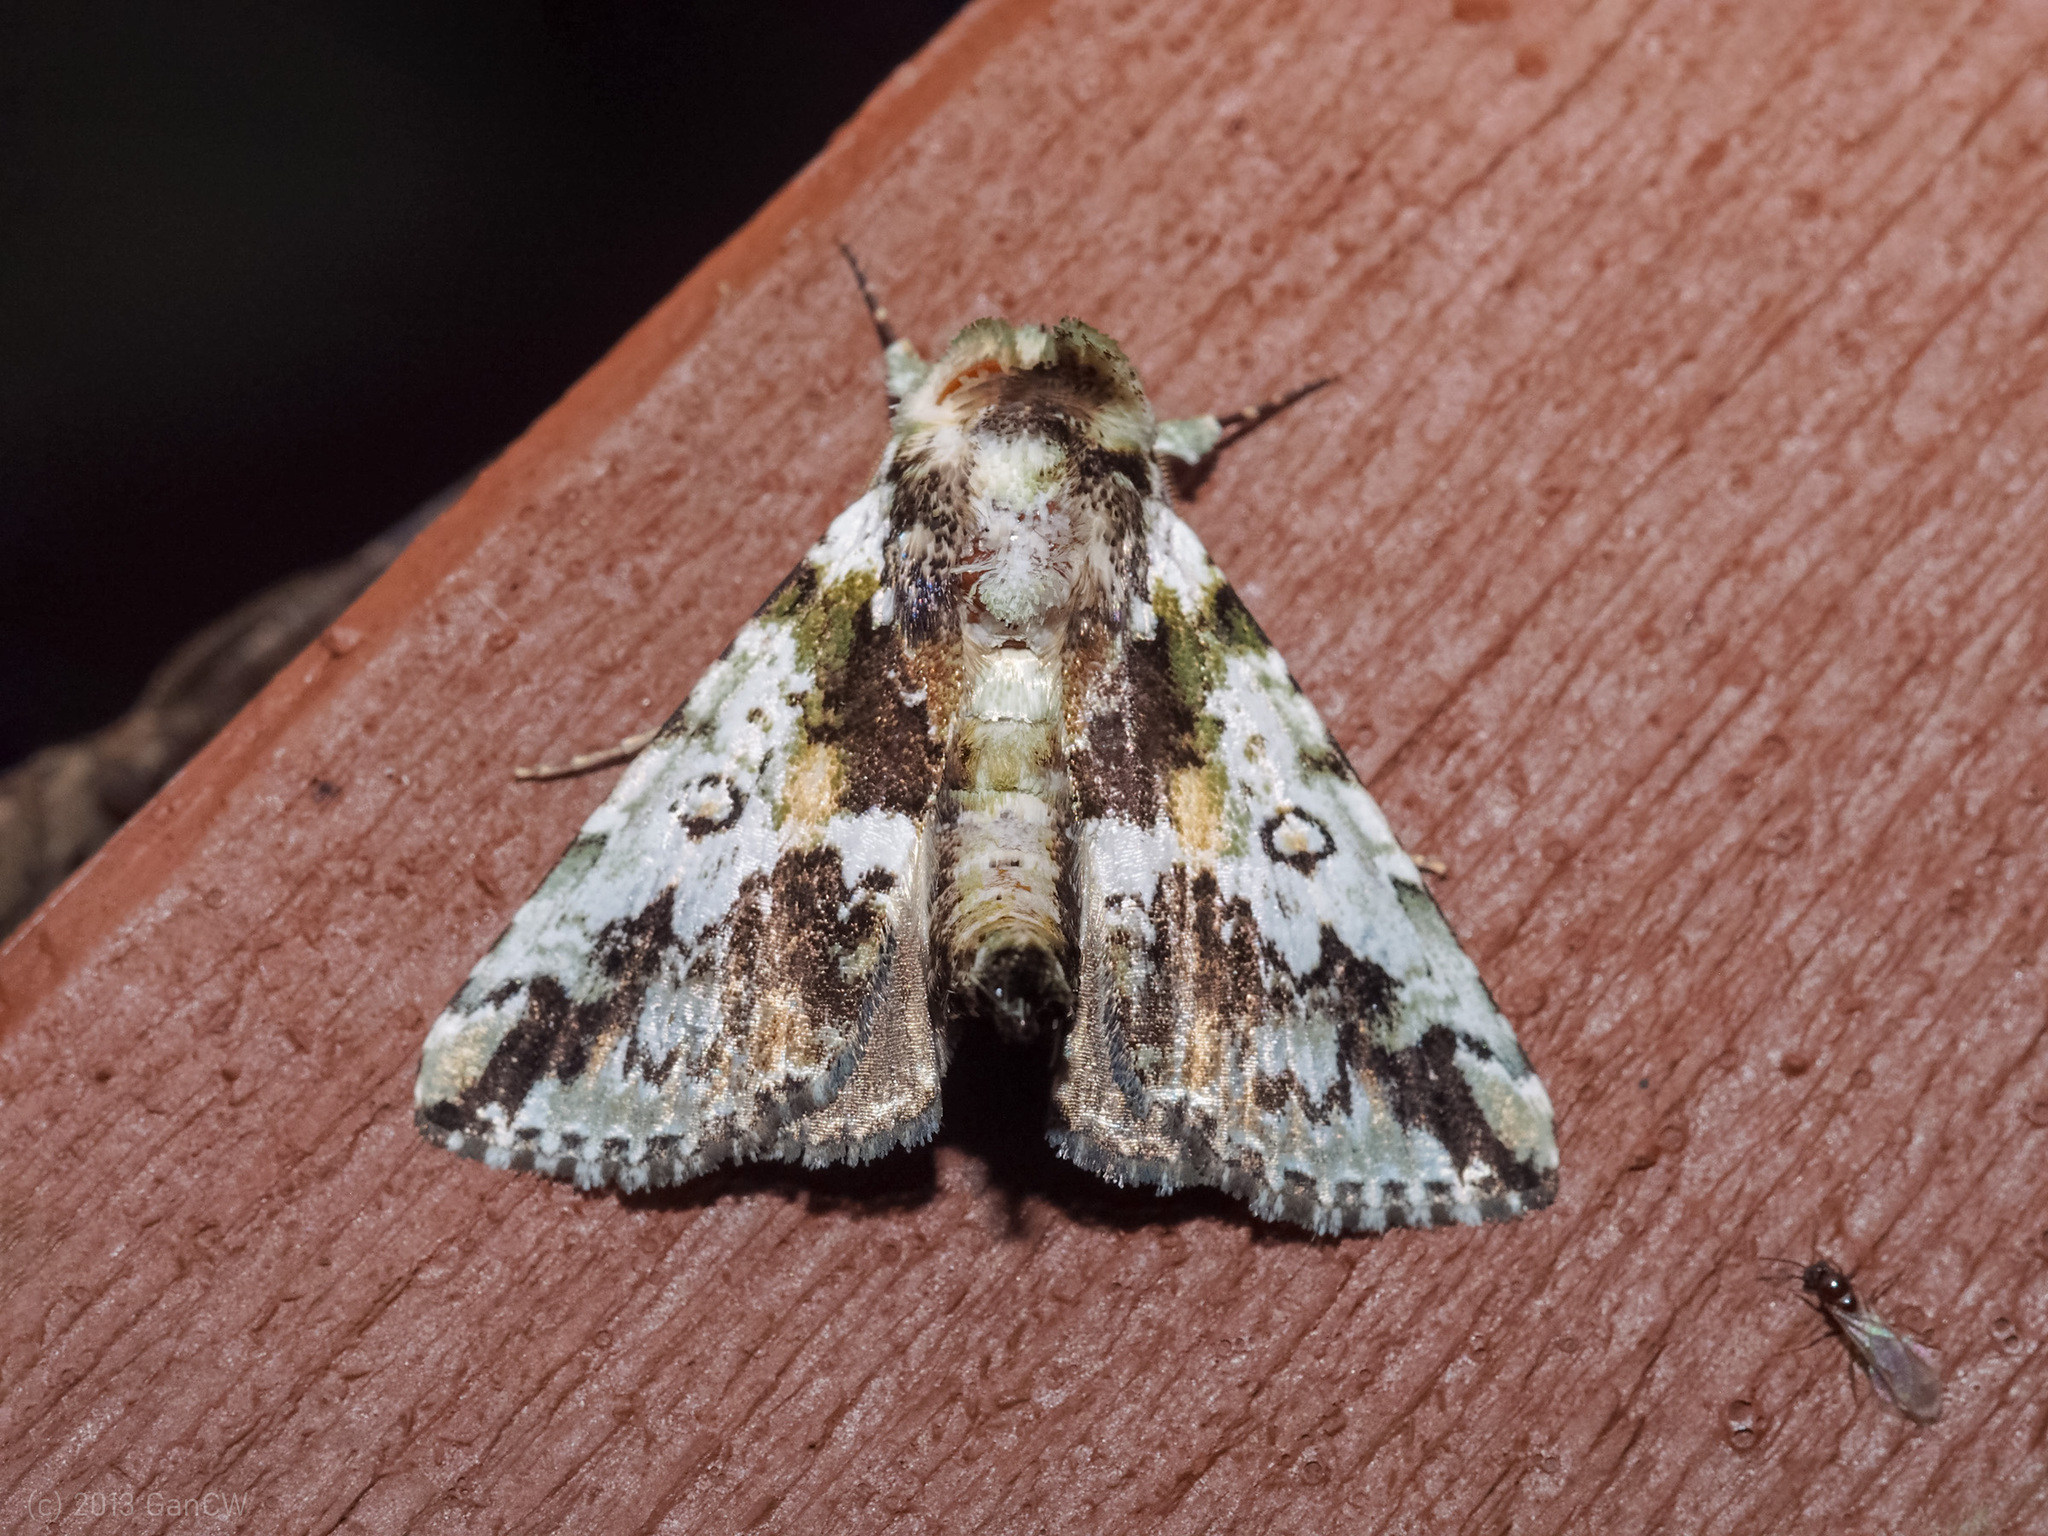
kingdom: Animalia
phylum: Arthropoda
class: Insecta
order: Lepidoptera
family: Nolidae
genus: Risoba
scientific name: Risoba calaina
